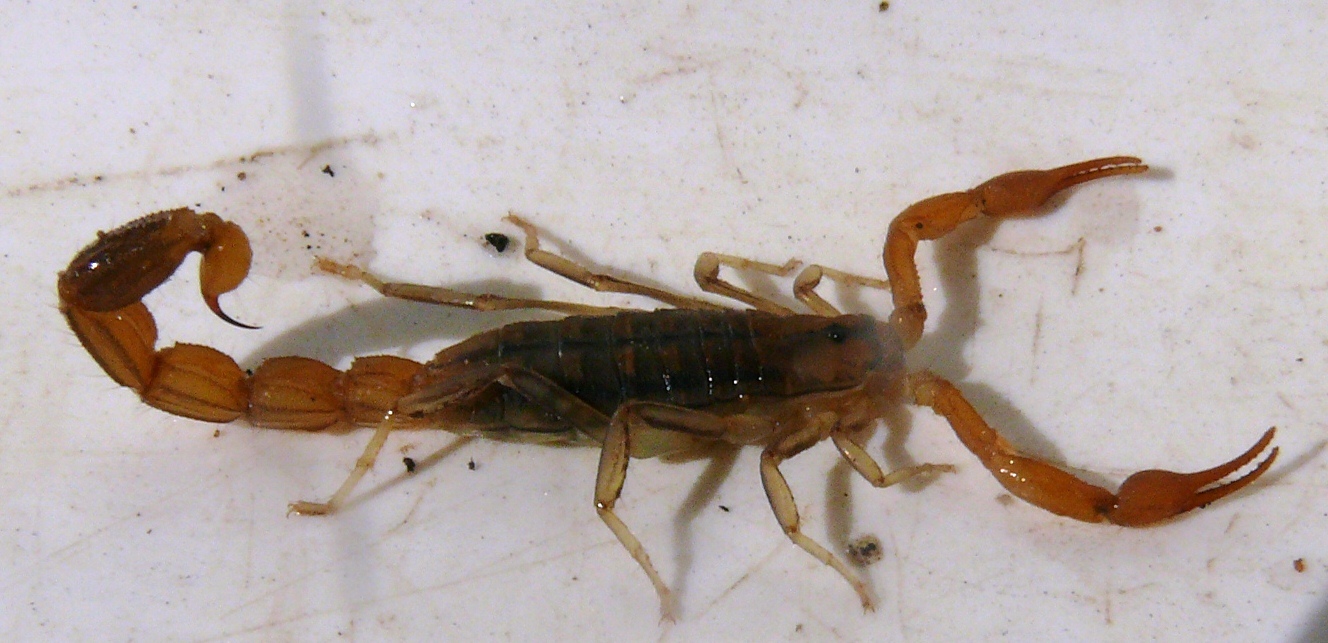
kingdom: Animalia
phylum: Arthropoda
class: Arachnida
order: Scorpiones
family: Buthidae
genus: Uroplectes
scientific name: Uroplectes carinatus
